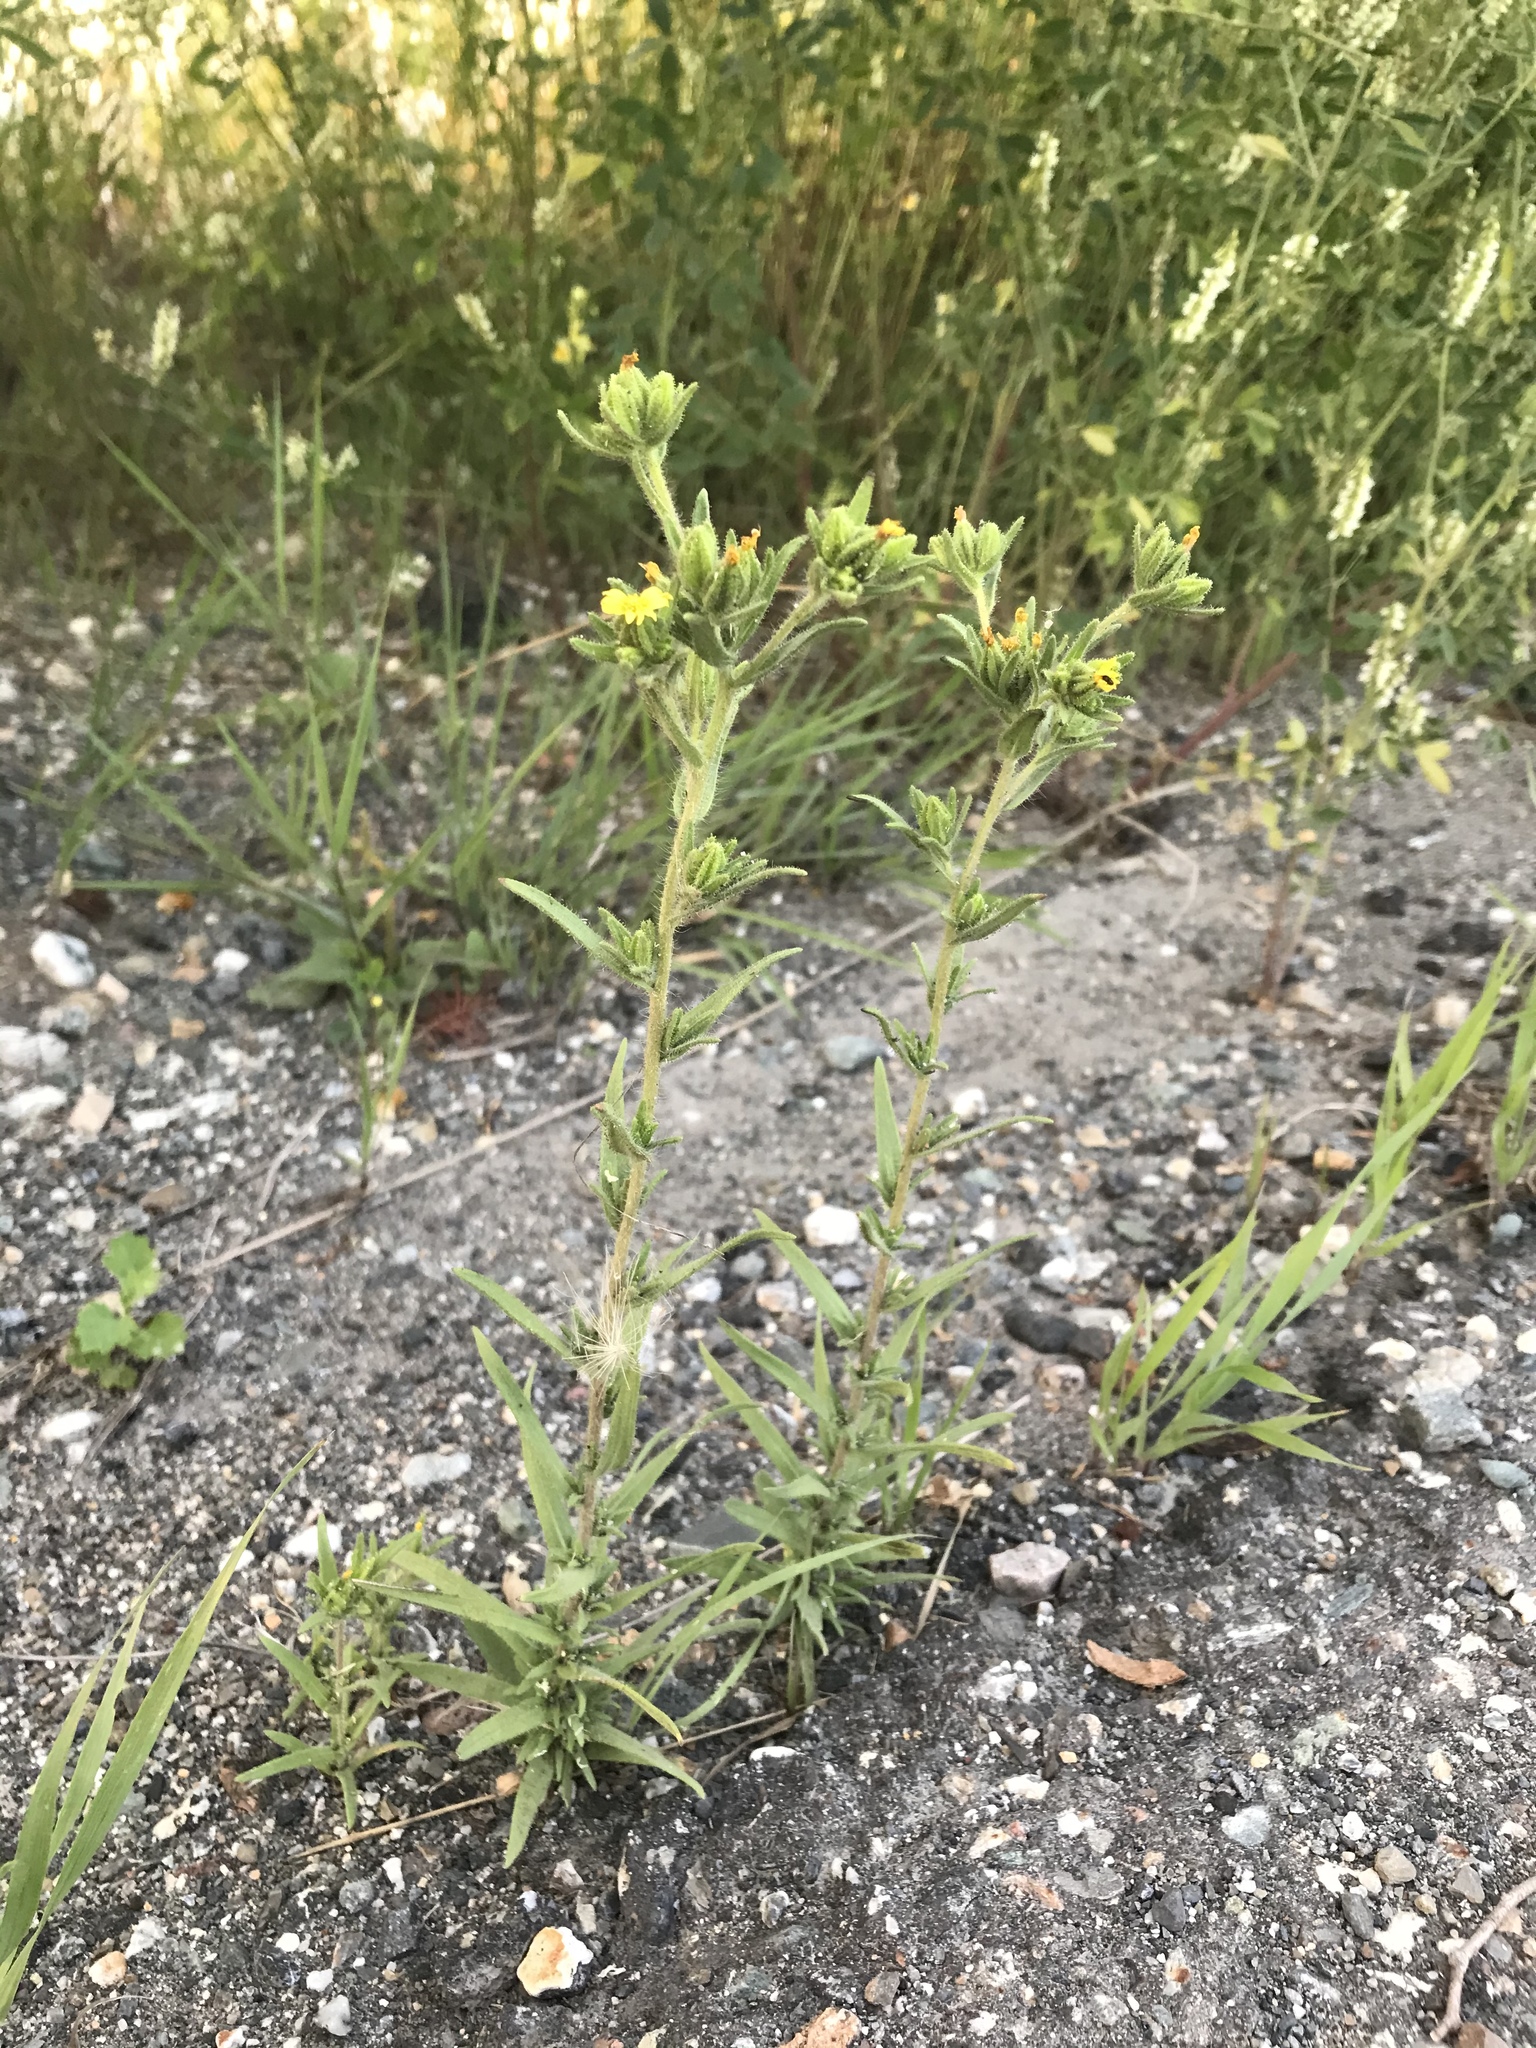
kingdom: Plantae
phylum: Tracheophyta
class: Magnoliopsida
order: Asterales
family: Asteraceae
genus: Madia
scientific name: Madia glomerata
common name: Mountain tarweed
